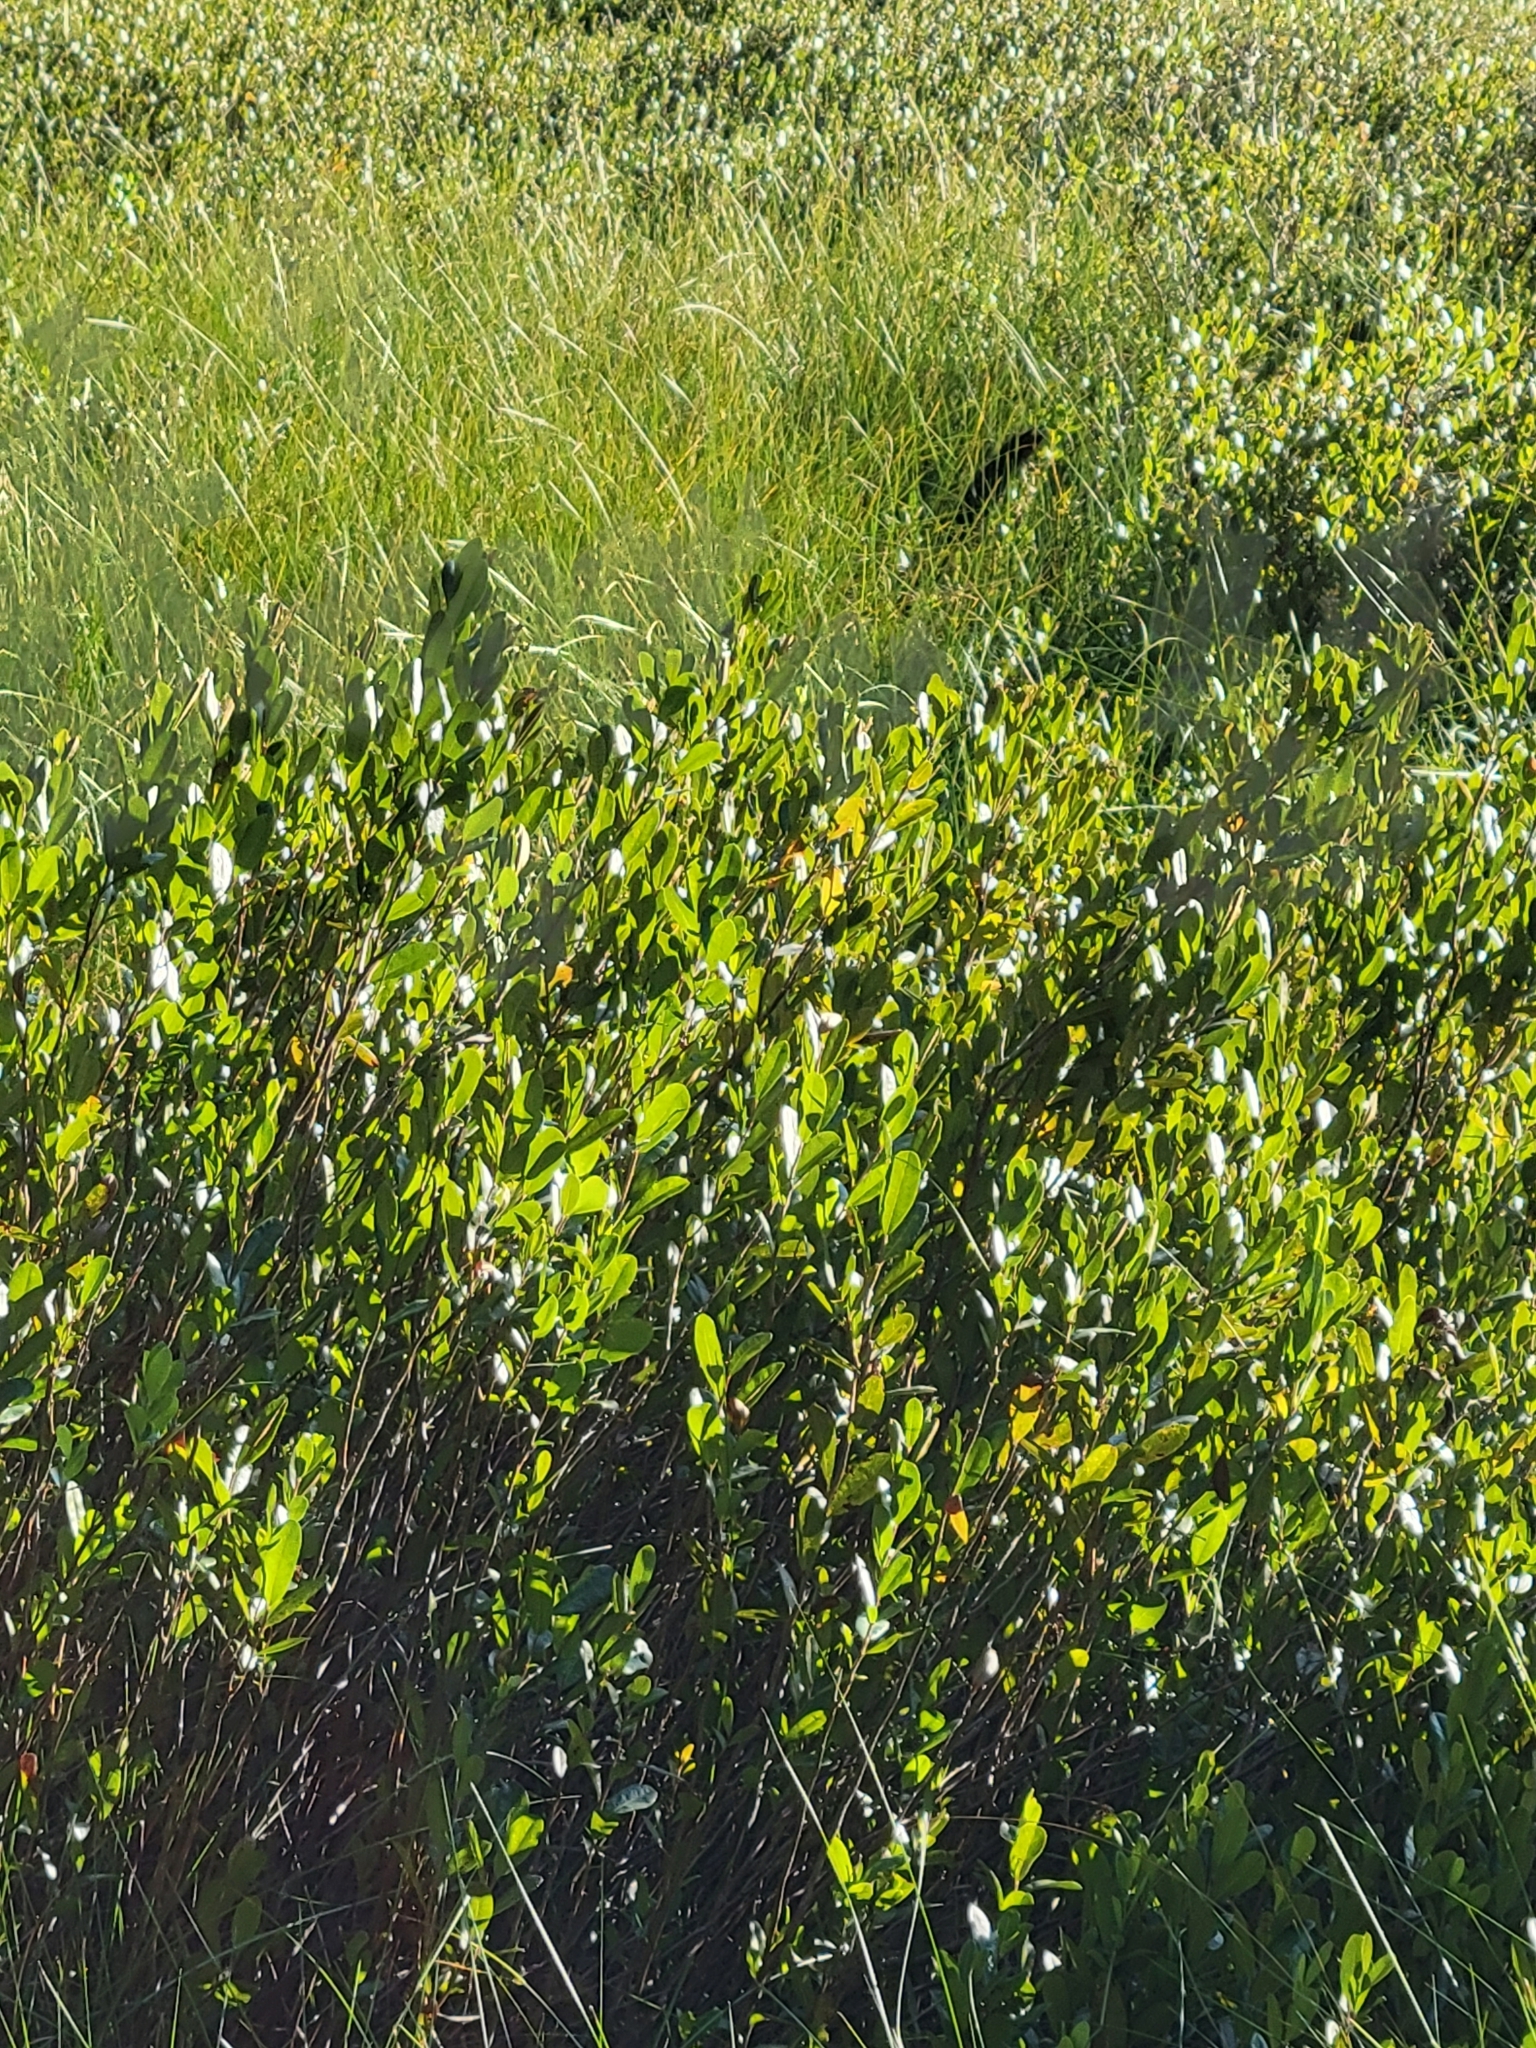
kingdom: Plantae
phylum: Tracheophyta
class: Magnoliopsida
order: Ericales
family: Ericaceae
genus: Chamaedaphne
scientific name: Chamaedaphne calyculata
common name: Leatherleaf
